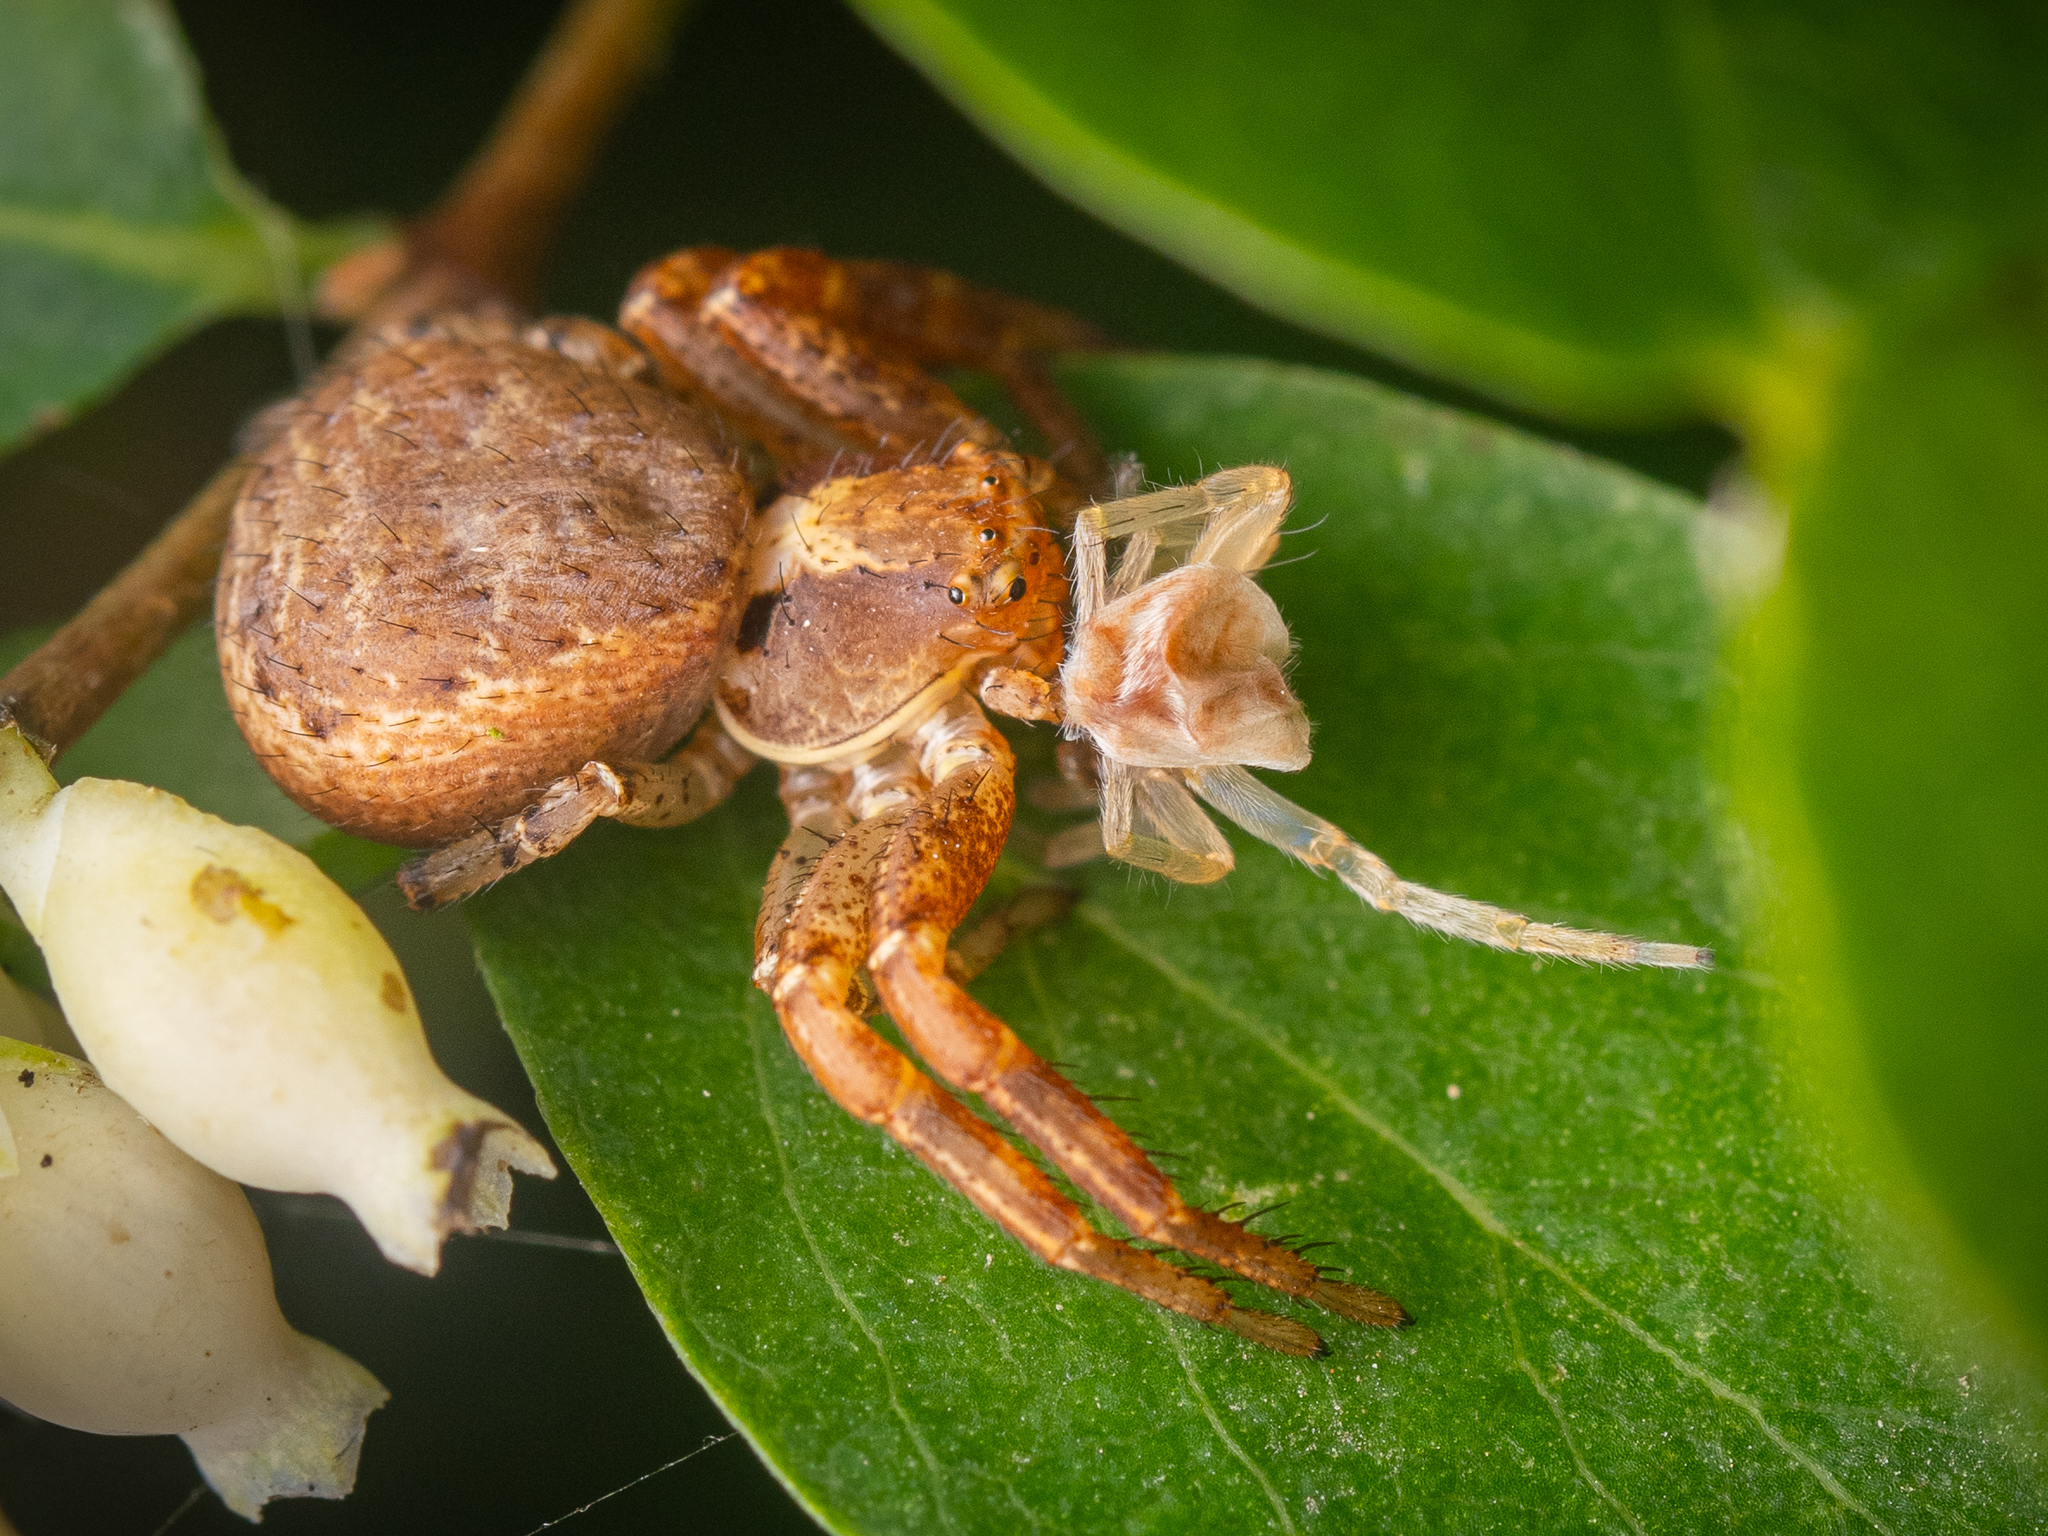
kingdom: Animalia
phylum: Arthropoda
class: Arachnida
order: Araneae
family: Thomisidae
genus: Xysticus
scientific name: Xysticus lanio
